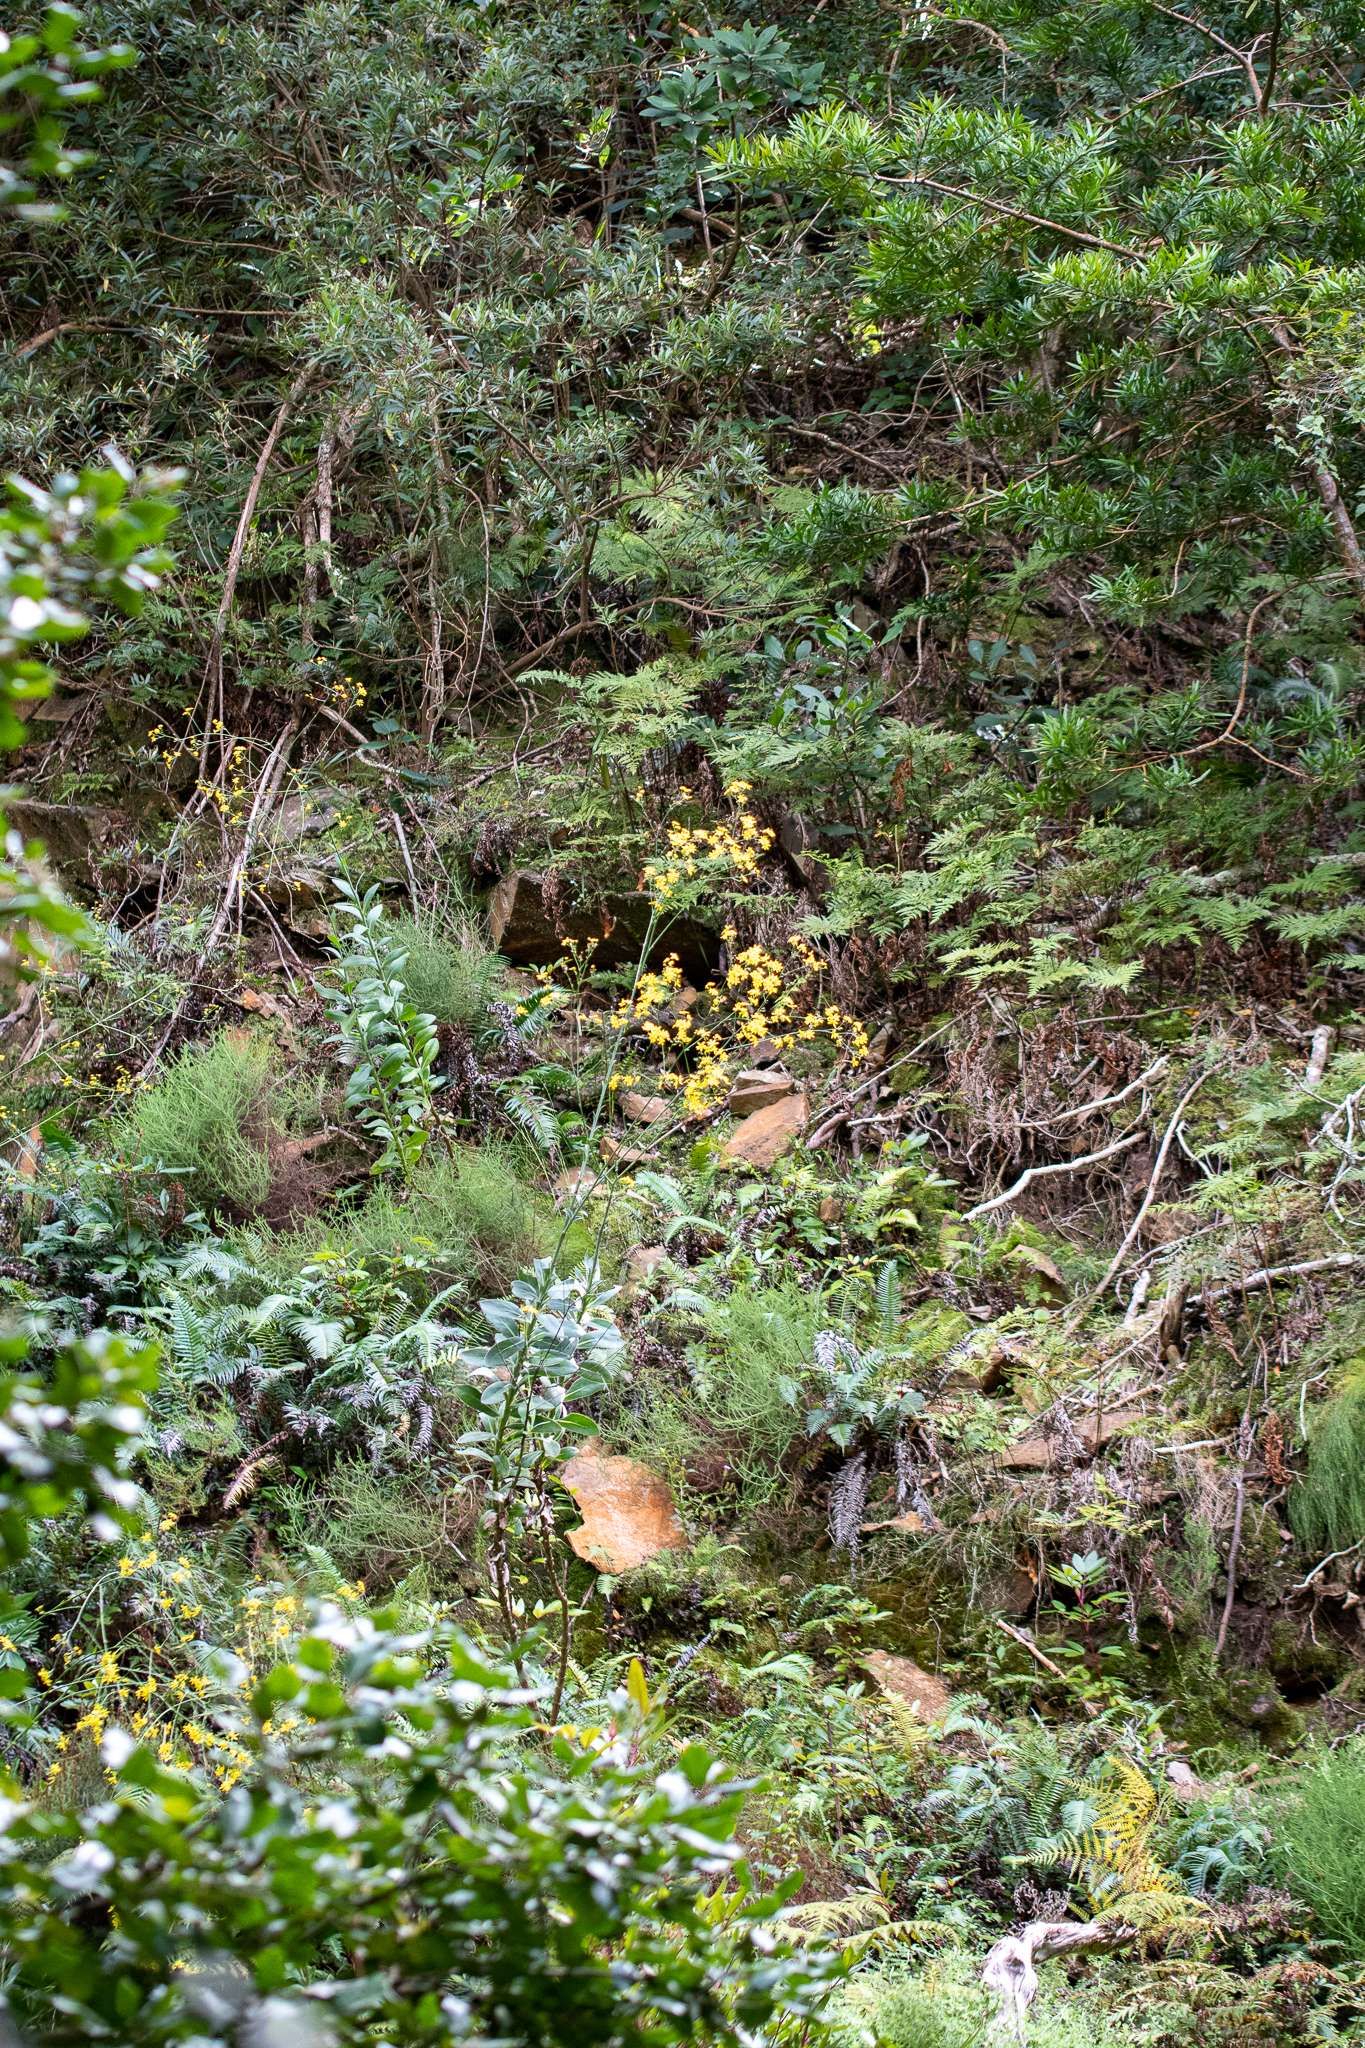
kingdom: Plantae
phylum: Tracheophyta
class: Magnoliopsida
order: Asterales
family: Asteraceae
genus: Othonna
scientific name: Othonna quinquedentata
